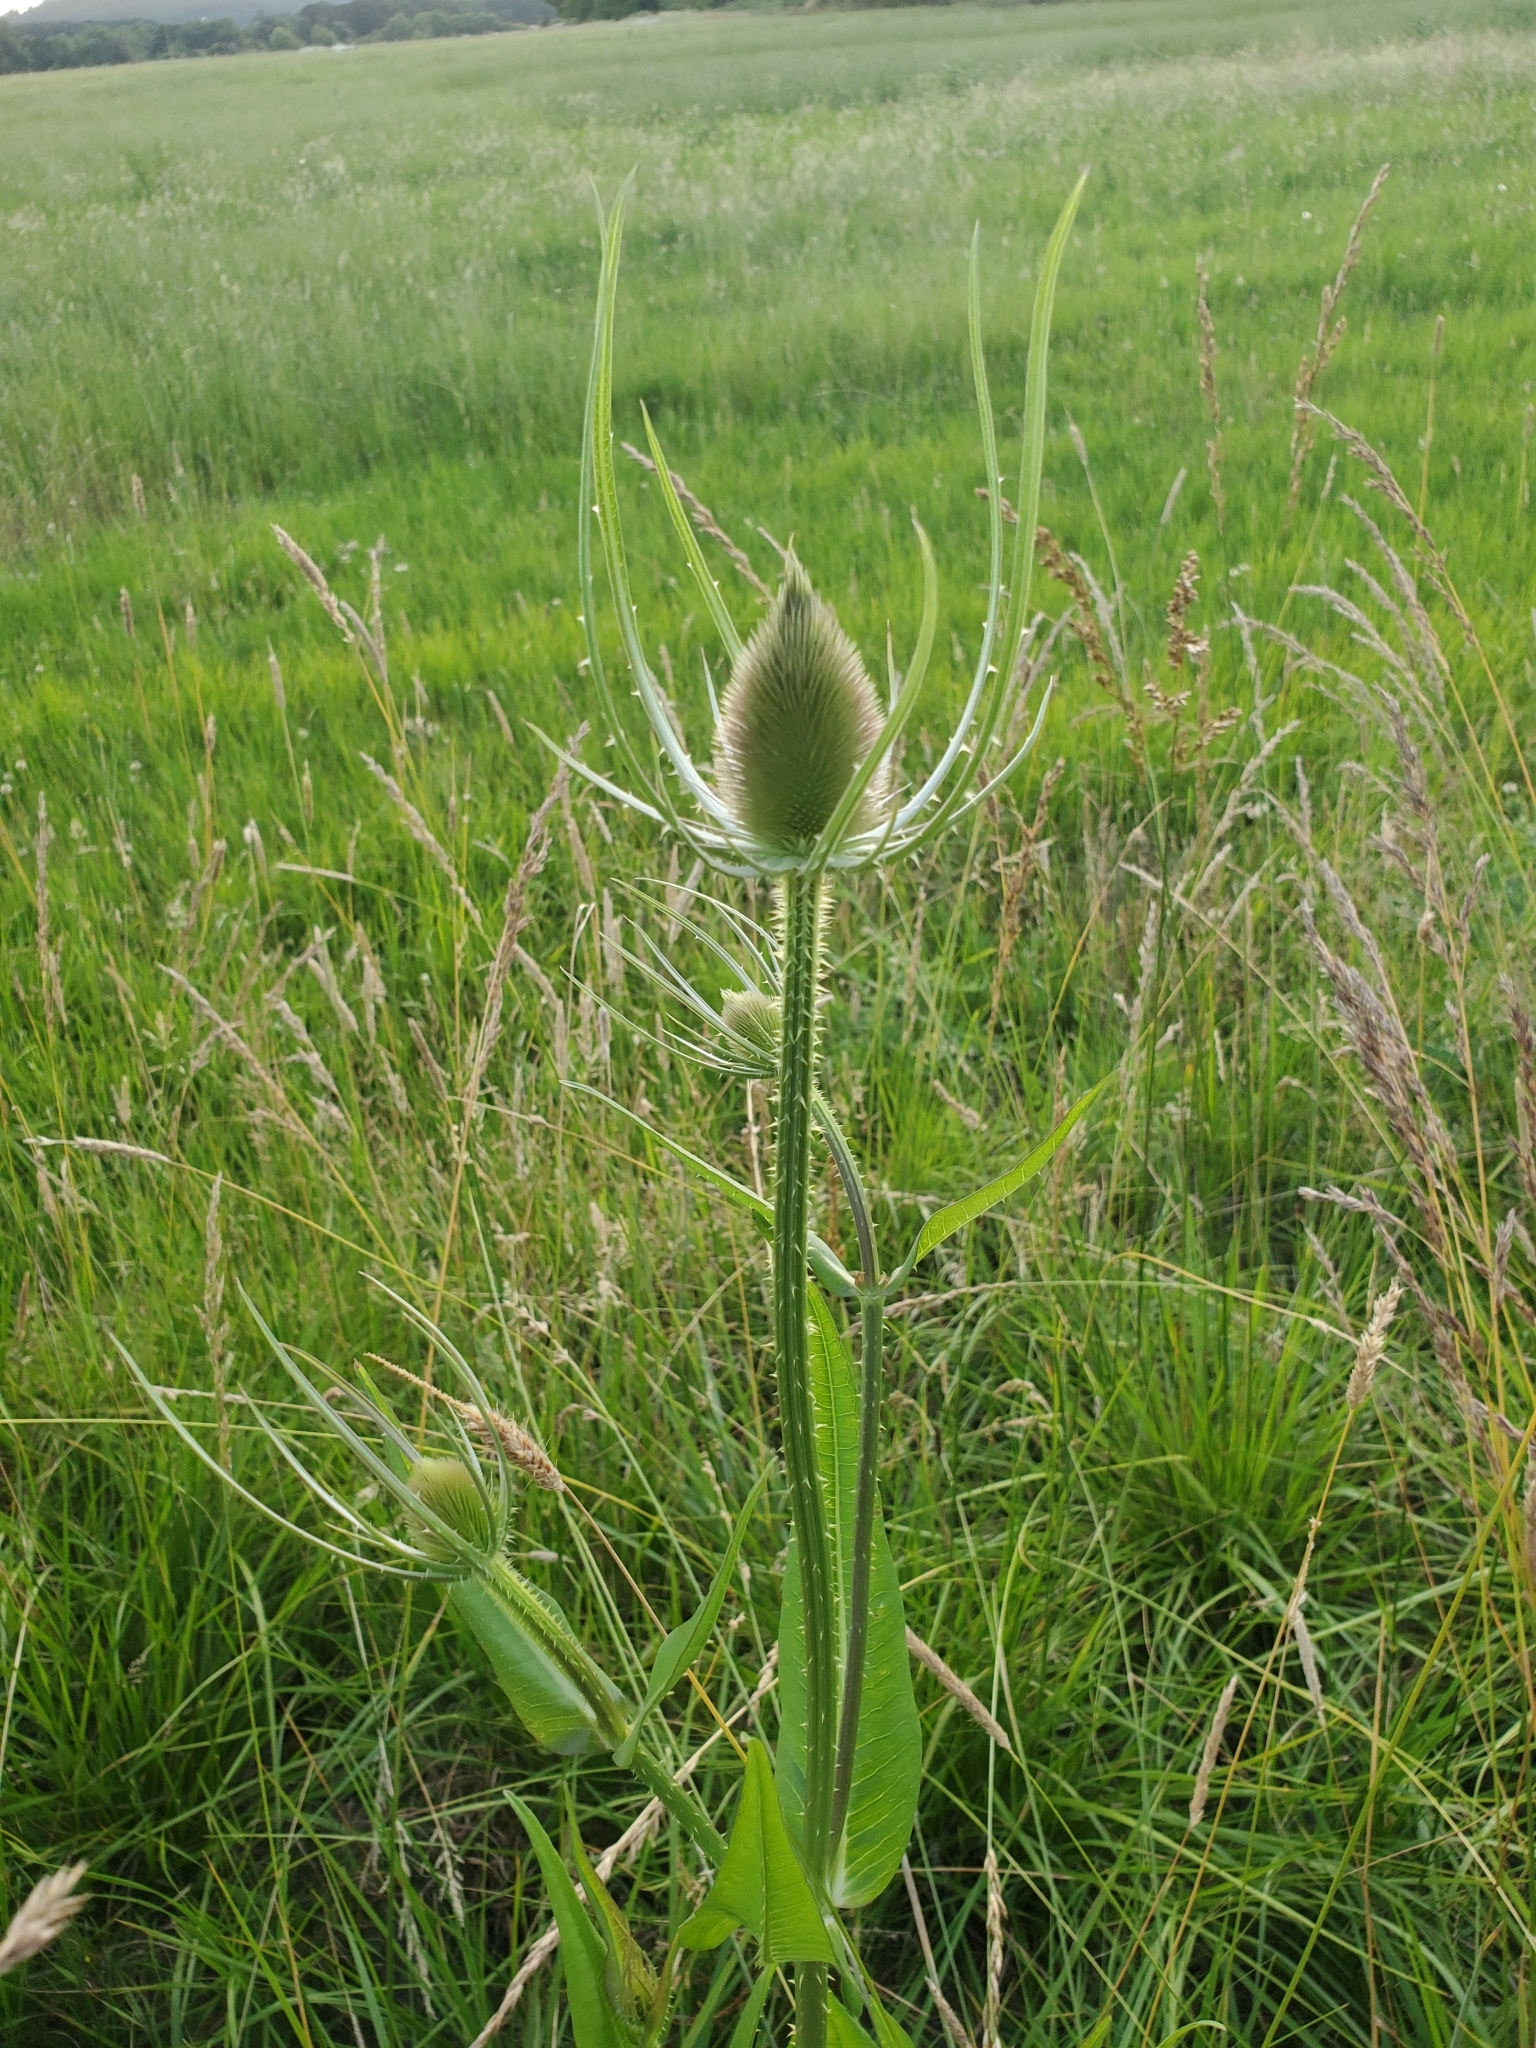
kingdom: Plantae
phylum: Tracheophyta
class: Magnoliopsida
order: Dipsacales
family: Caprifoliaceae
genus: Dipsacus
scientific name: Dipsacus fullonum
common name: Teasel
